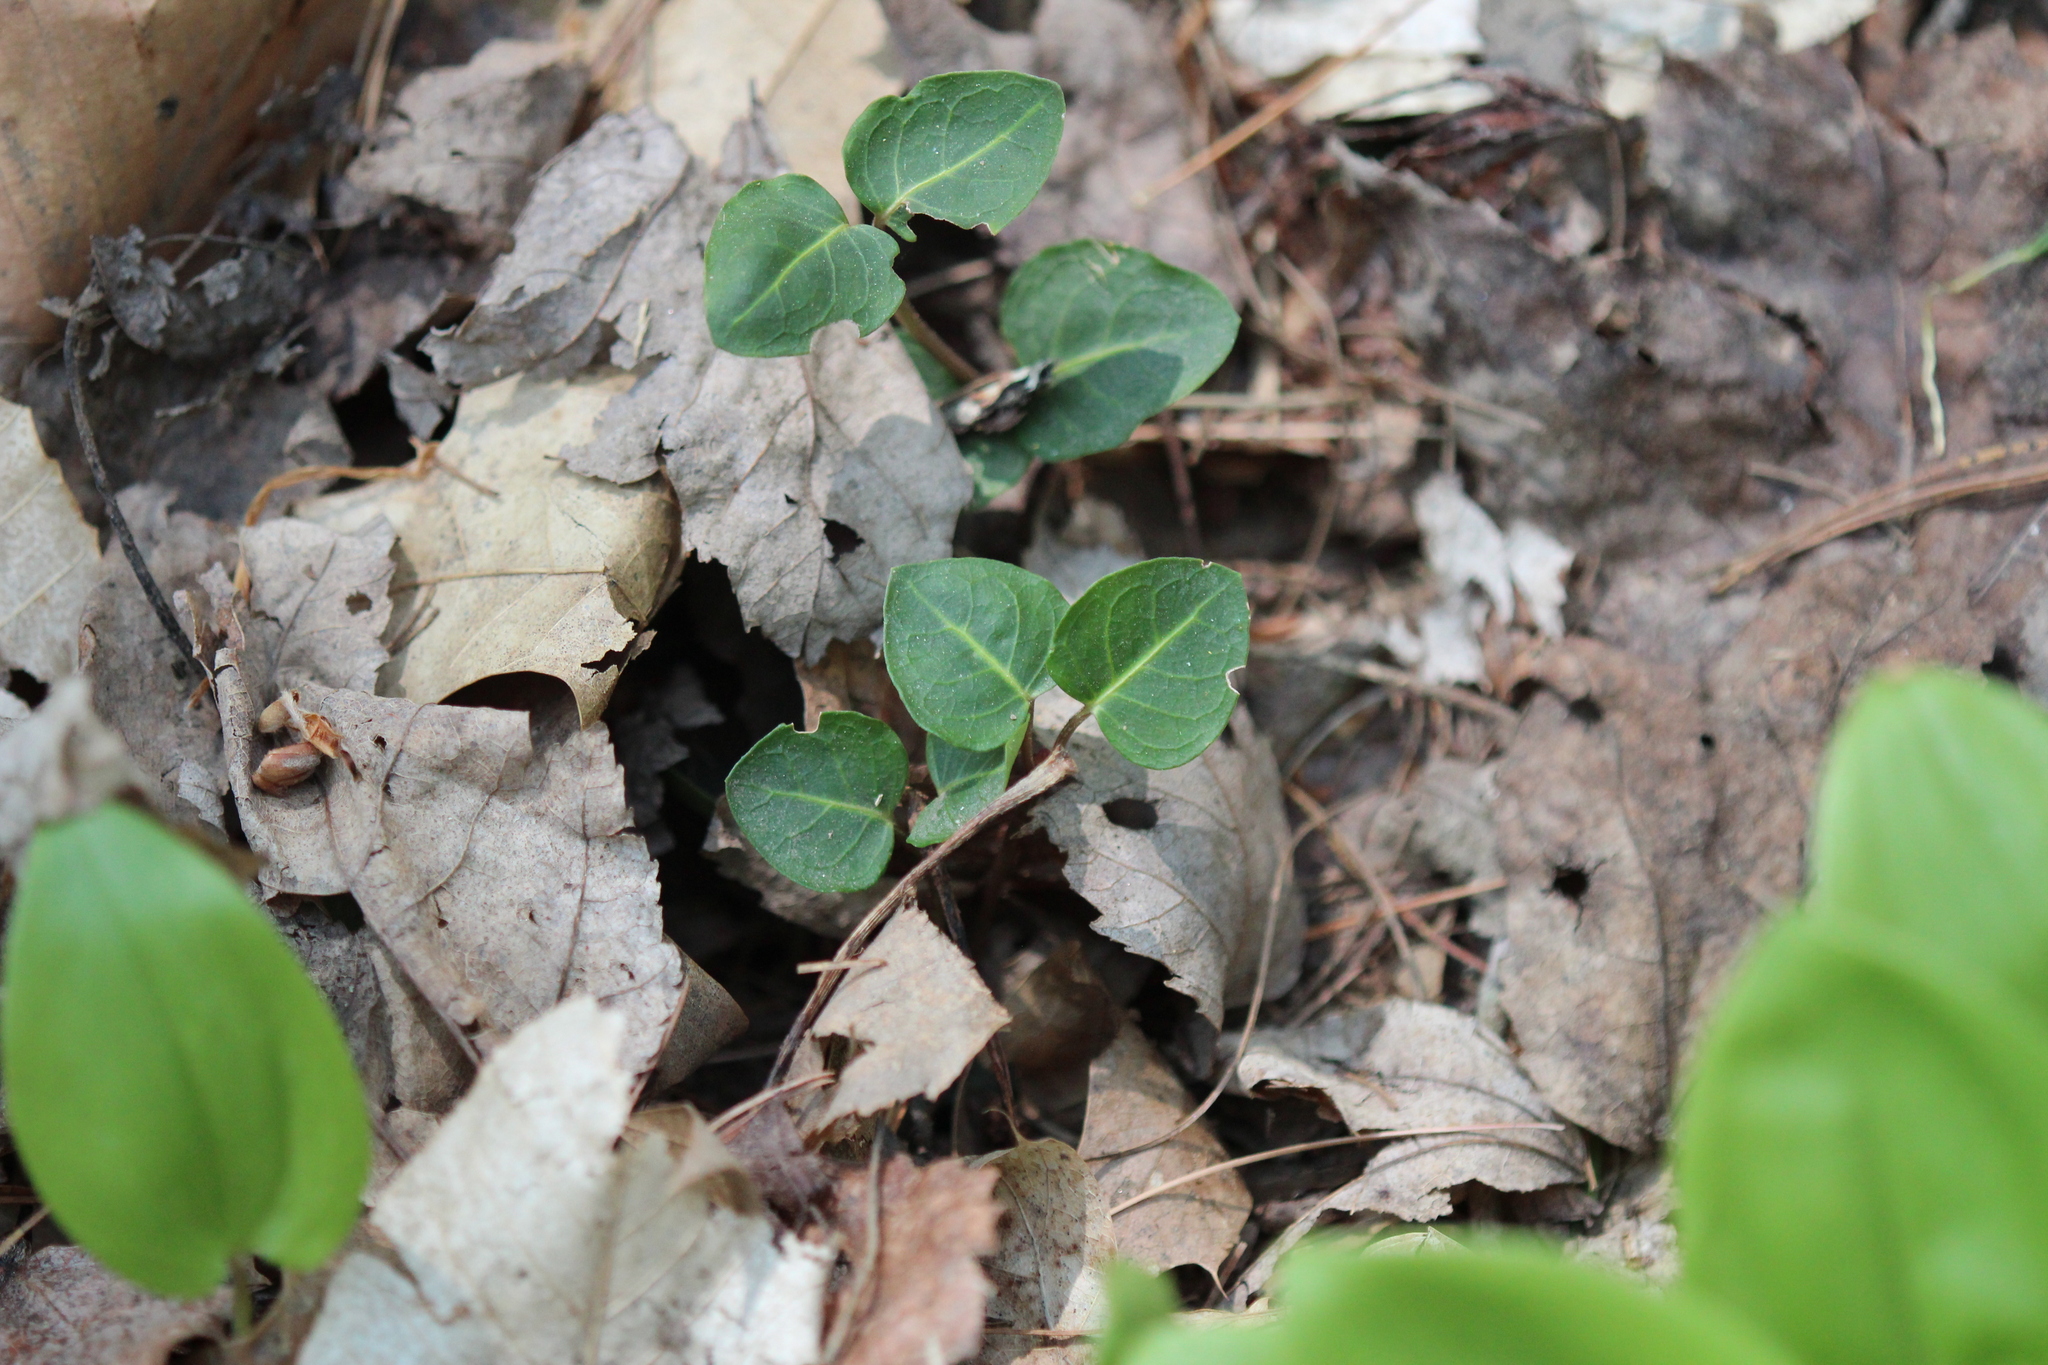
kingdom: Plantae
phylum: Tracheophyta
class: Magnoliopsida
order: Gentianales
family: Rubiaceae
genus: Mitchella
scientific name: Mitchella repens
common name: Partridge-berry
